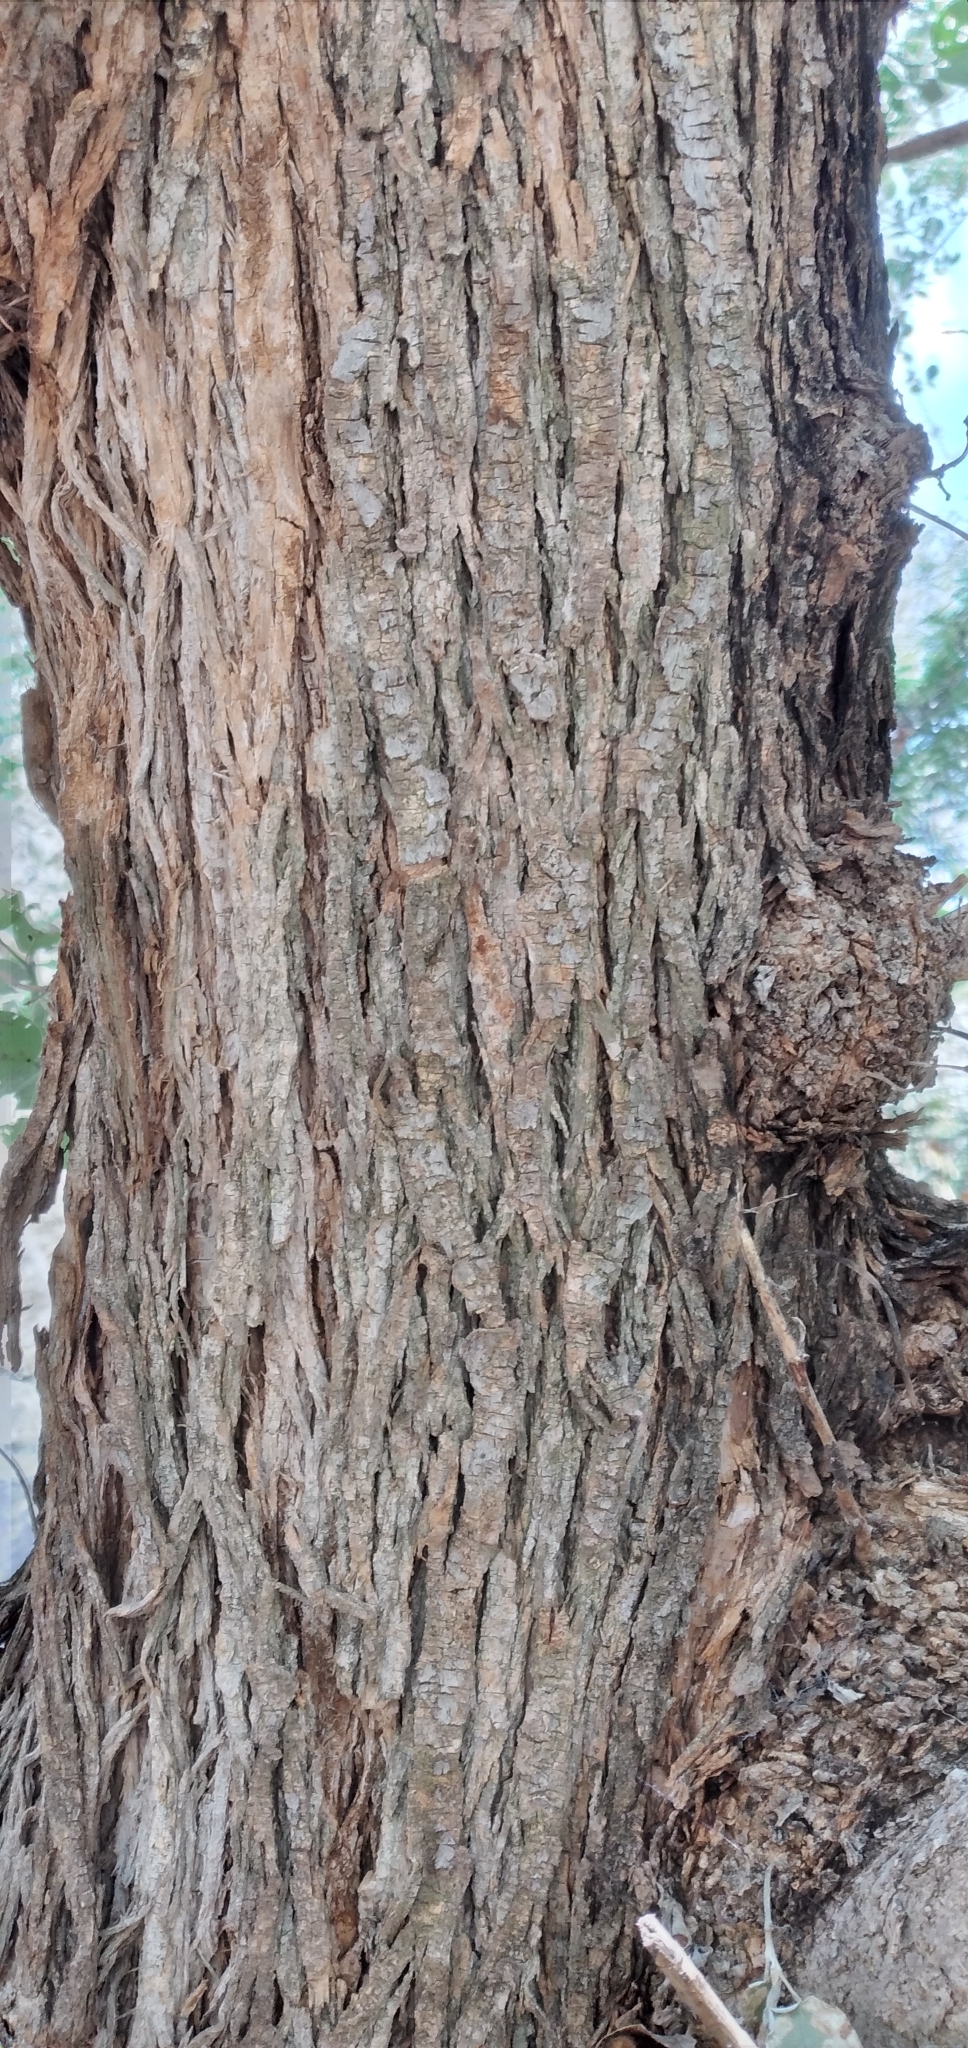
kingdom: Plantae
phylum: Tracheophyta
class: Magnoliopsida
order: Fabales
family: Fabaceae
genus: Poissonia
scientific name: Poissonia hypoleuca
